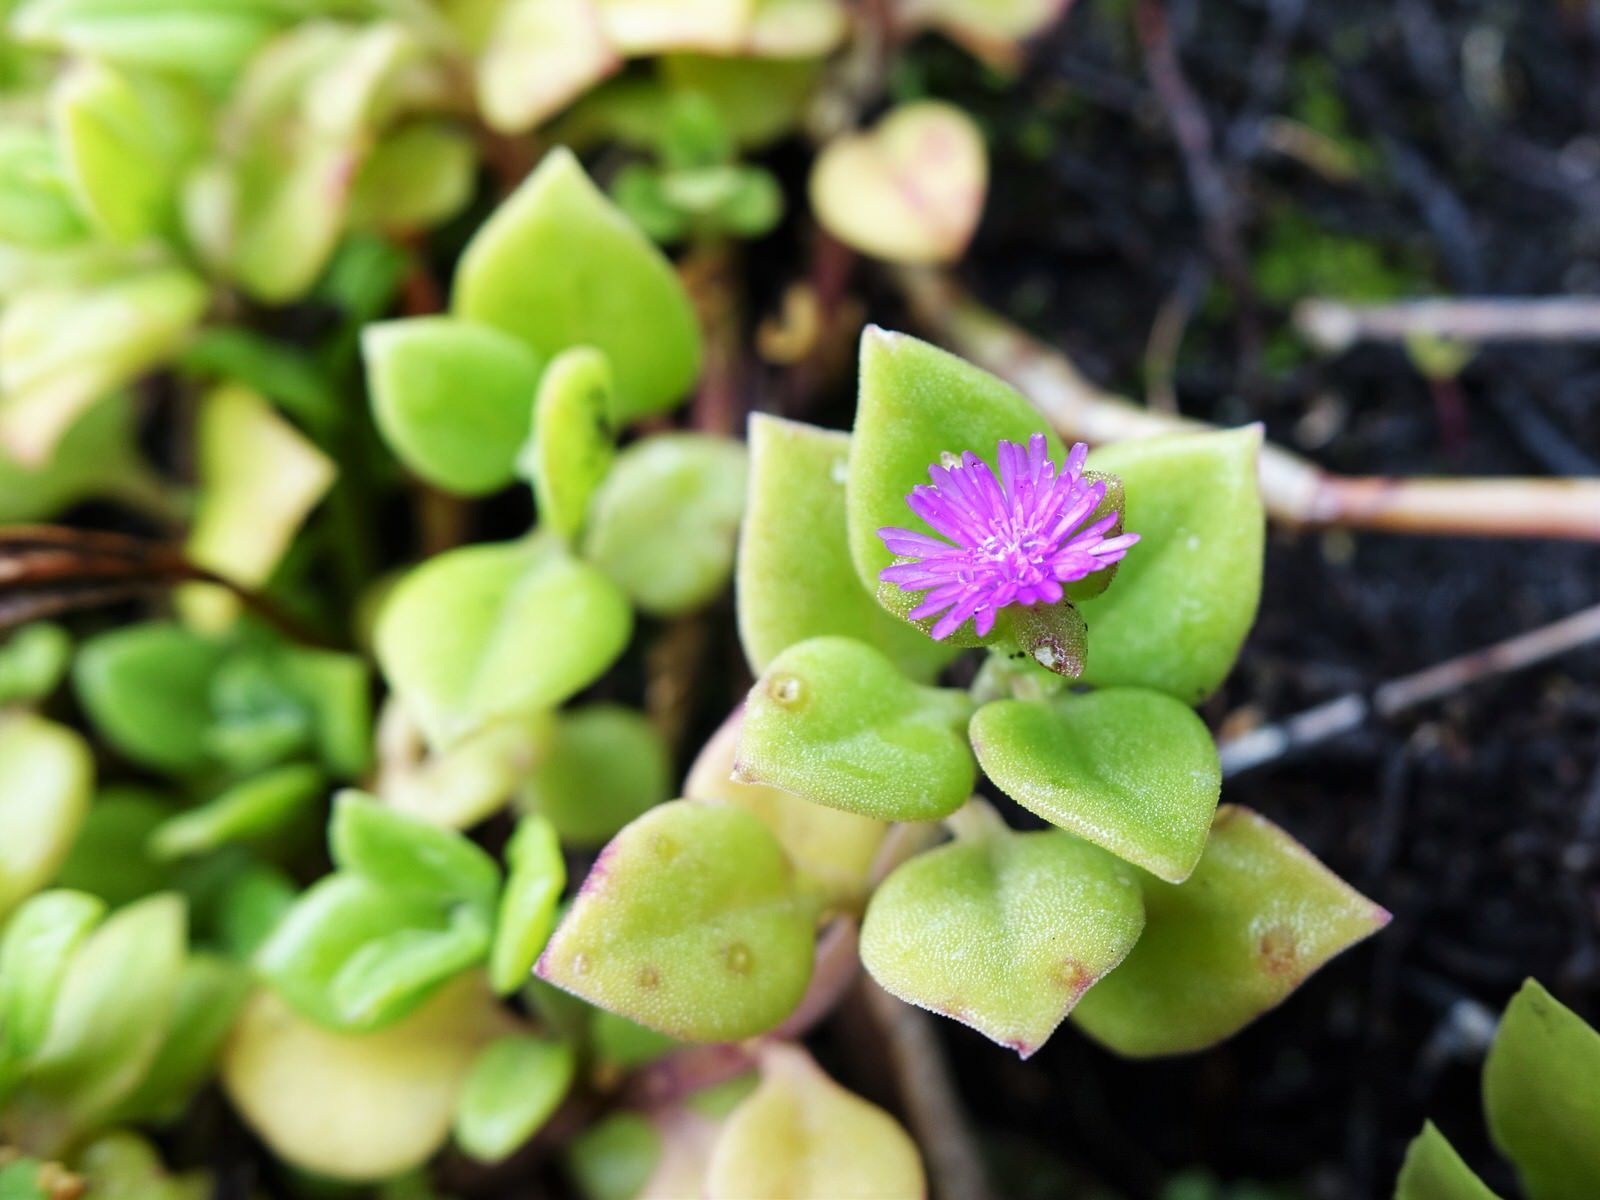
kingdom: Plantae
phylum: Tracheophyta
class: Magnoliopsida
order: Caryophyllales
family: Aizoaceae
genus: Mesembryanthemum
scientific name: Mesembryanthemum cordifolium
